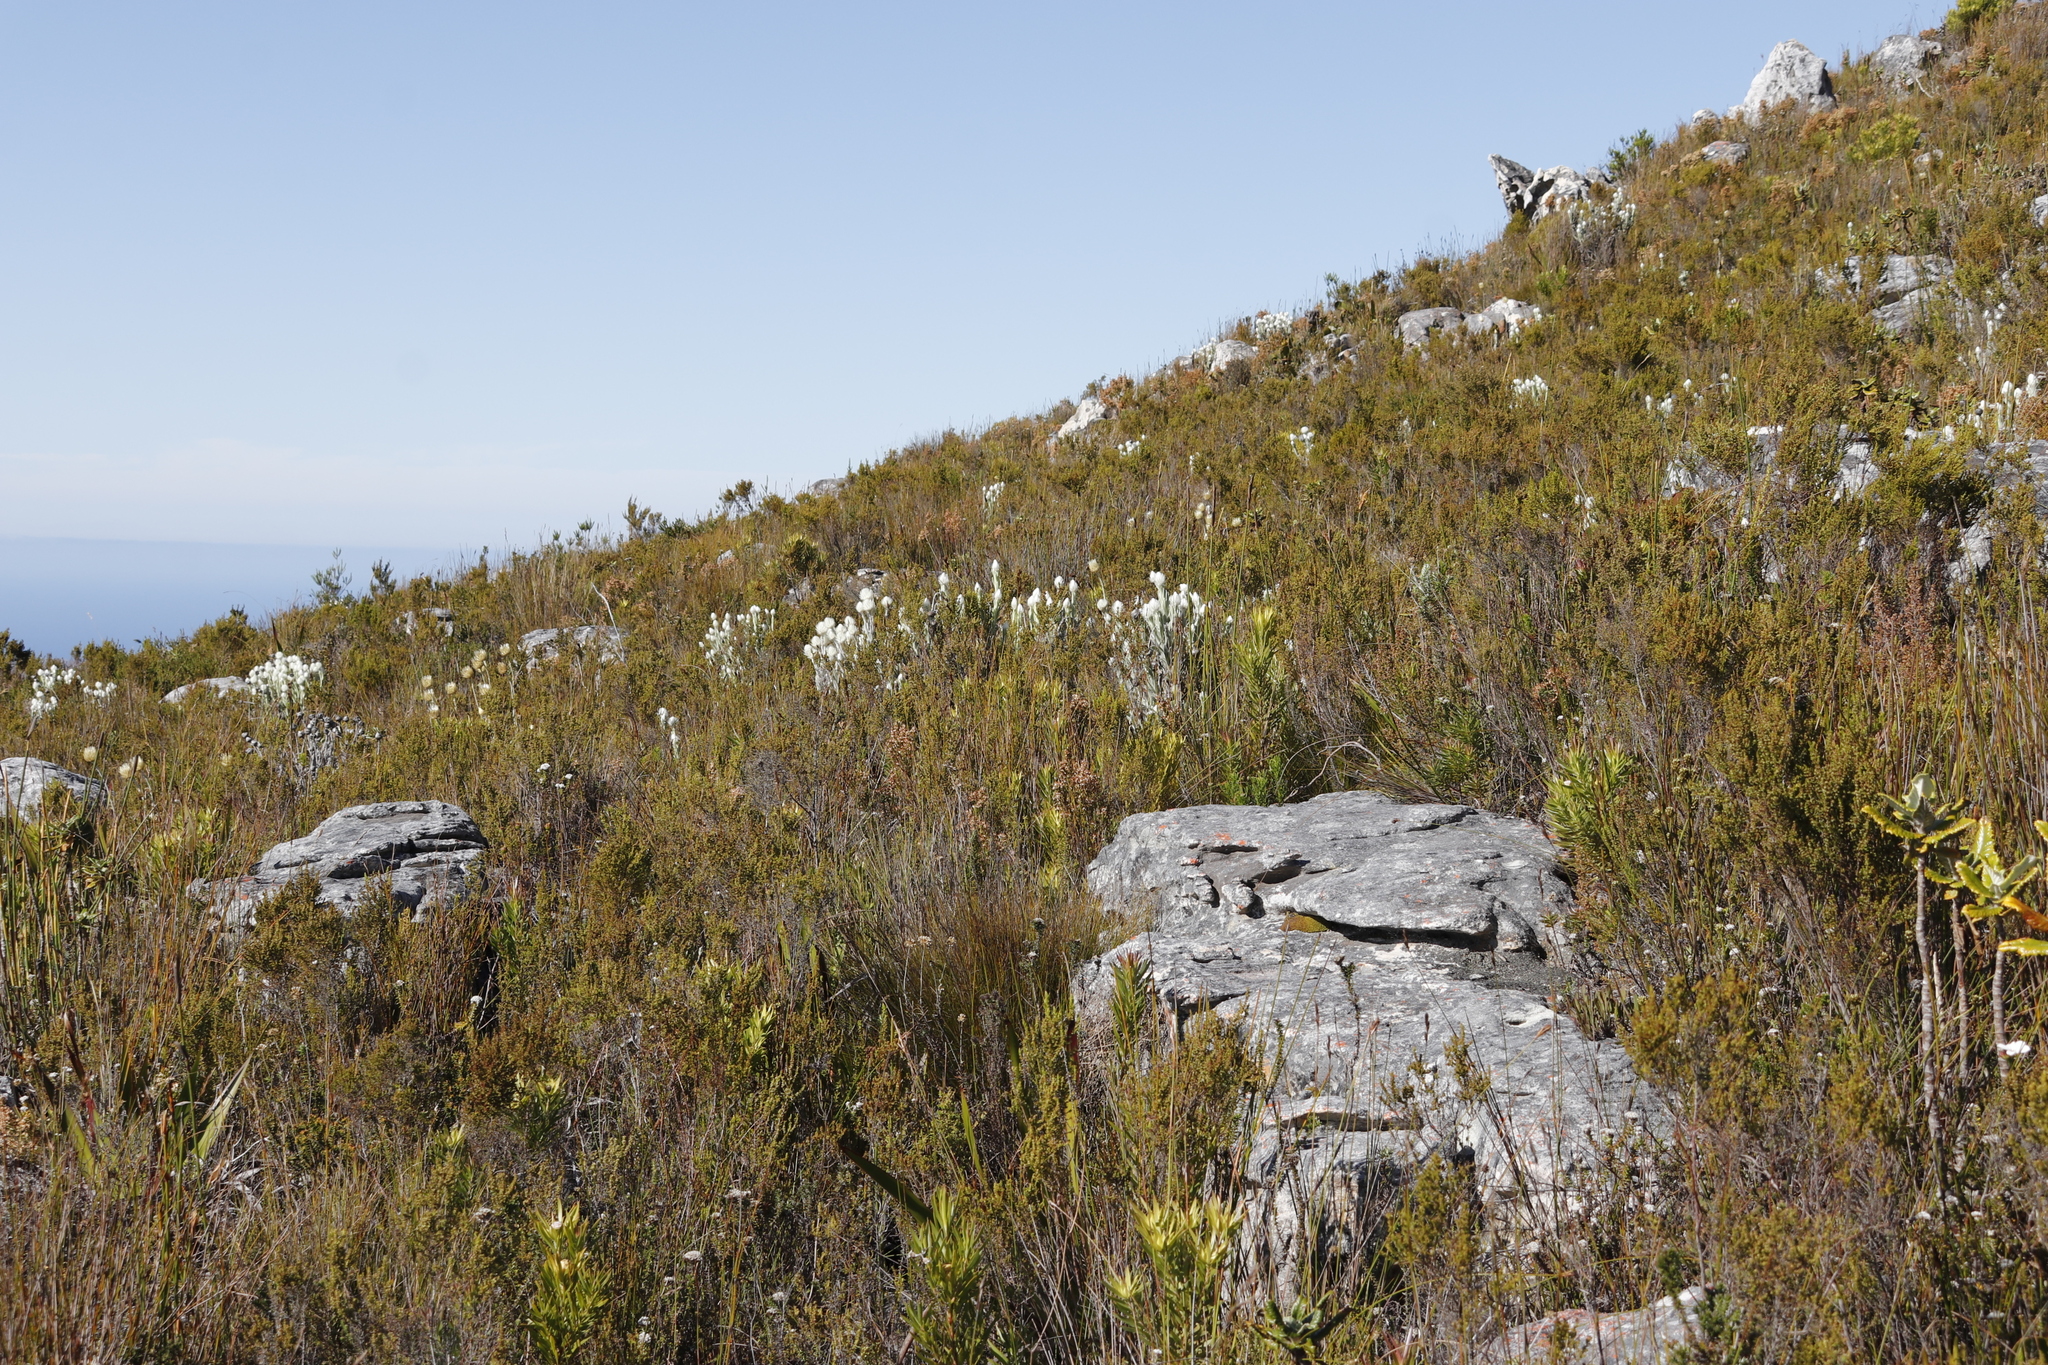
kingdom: Plantae
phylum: Tracheophyta
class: Magnoliopsida
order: Asterales
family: Asteraceae
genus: Syncarpha
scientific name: Syncarpha vestita
